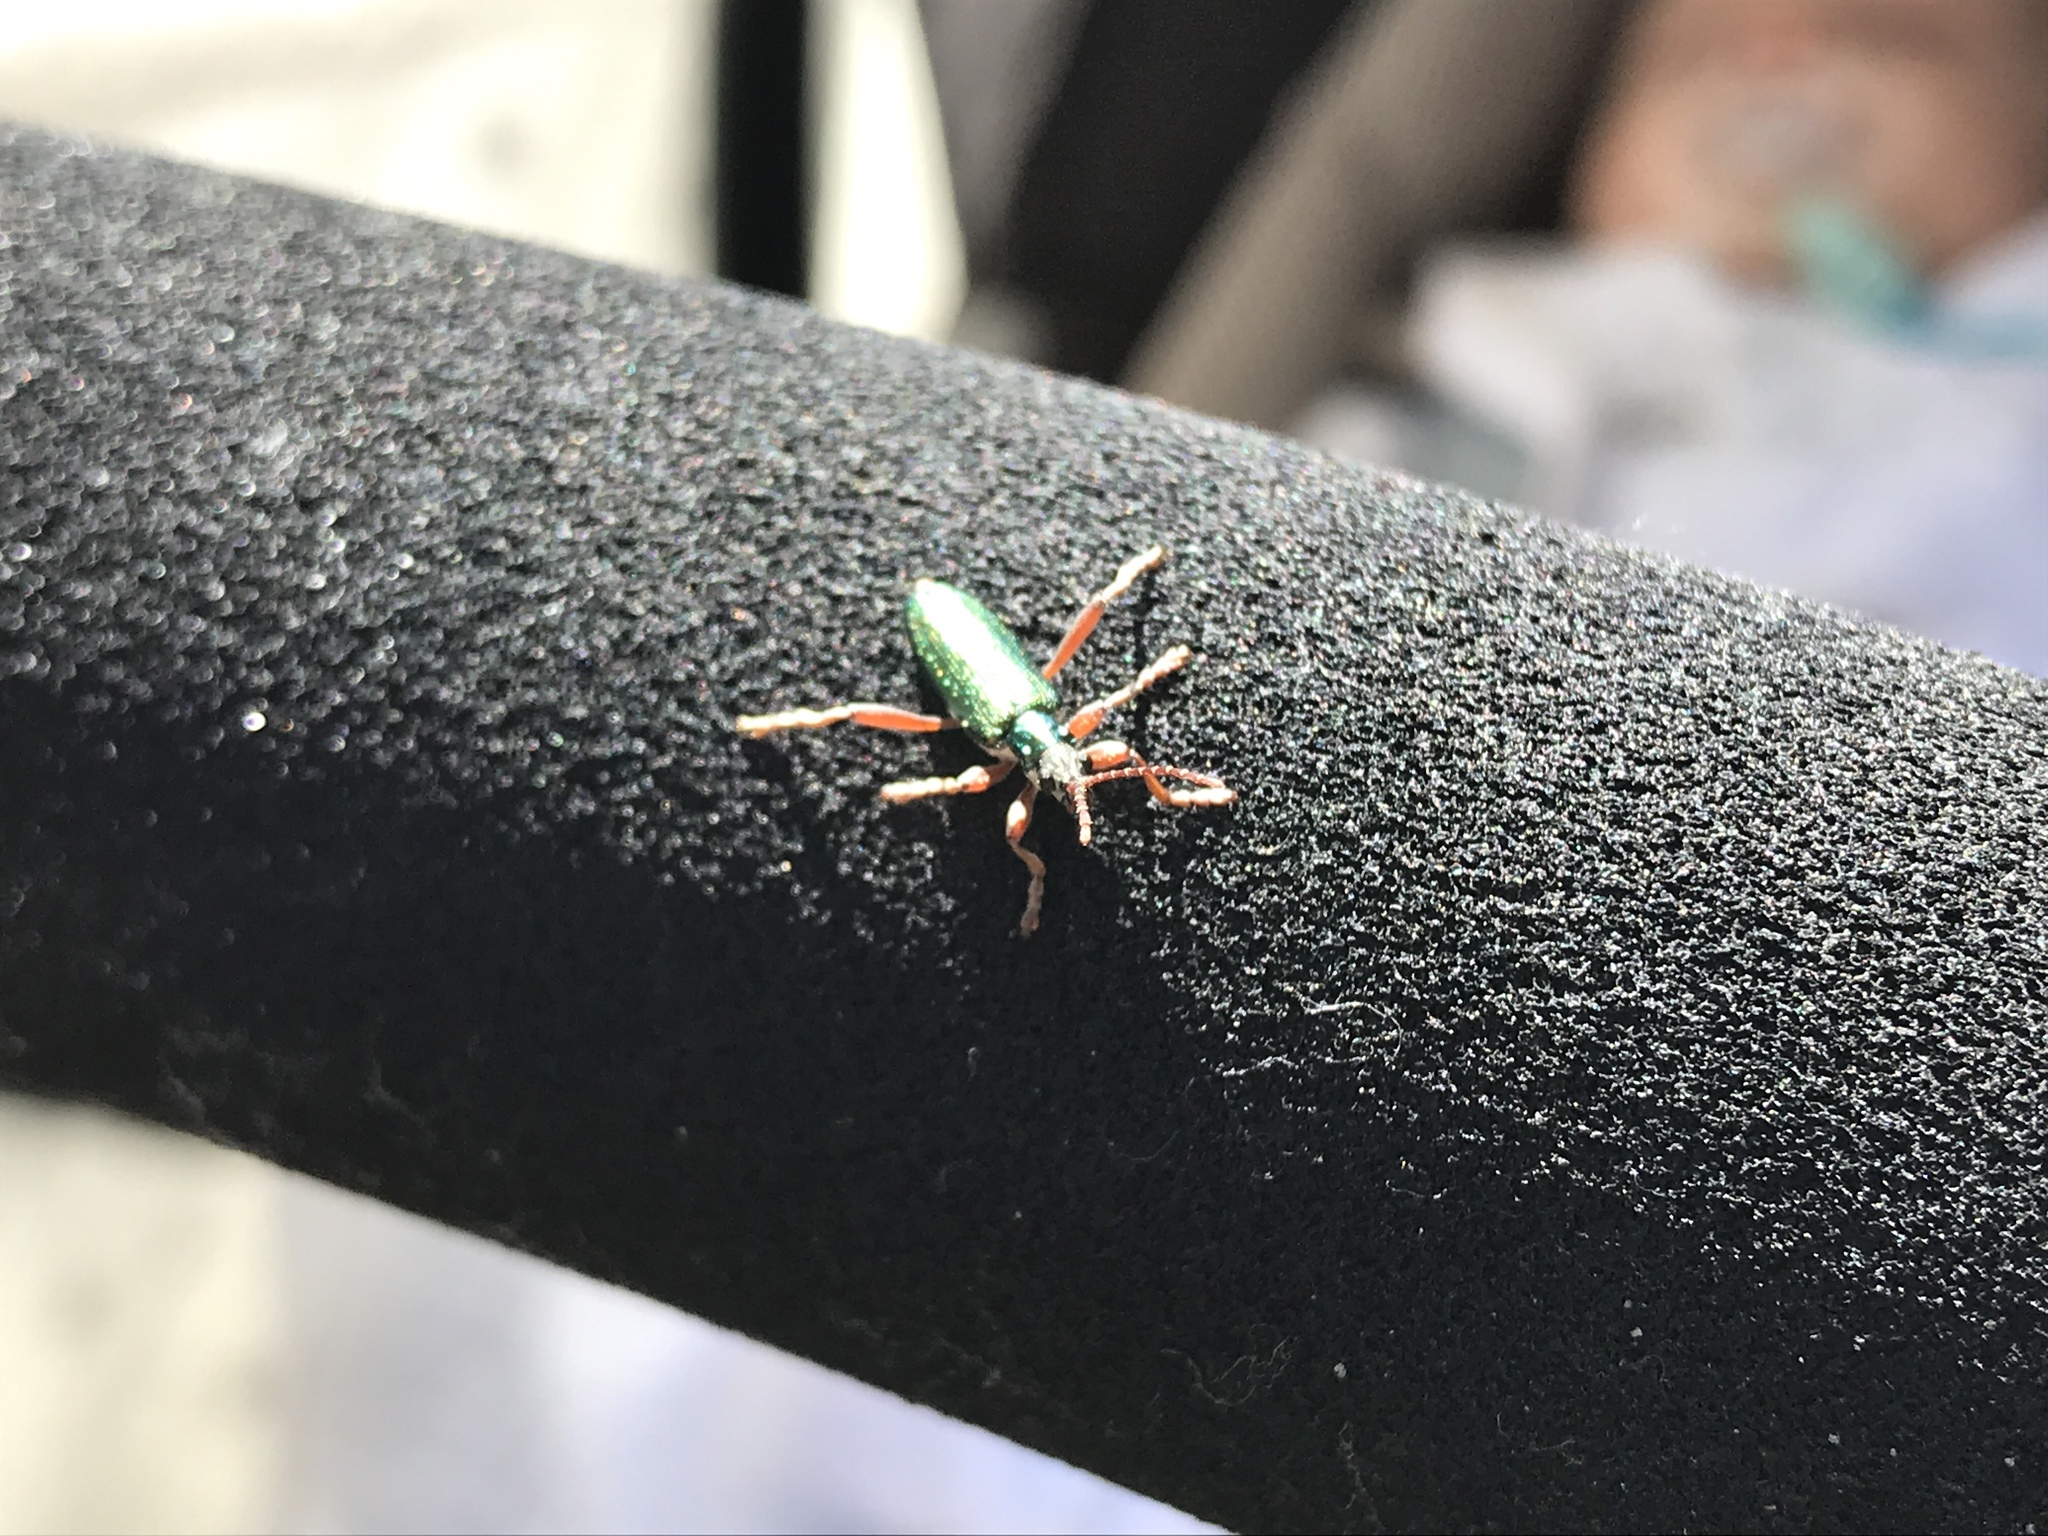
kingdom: Animalia
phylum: Arthropoda
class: Insecta
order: Coleoptera
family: Chrysomelidae
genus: Donacia
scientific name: Donacia clavipes
